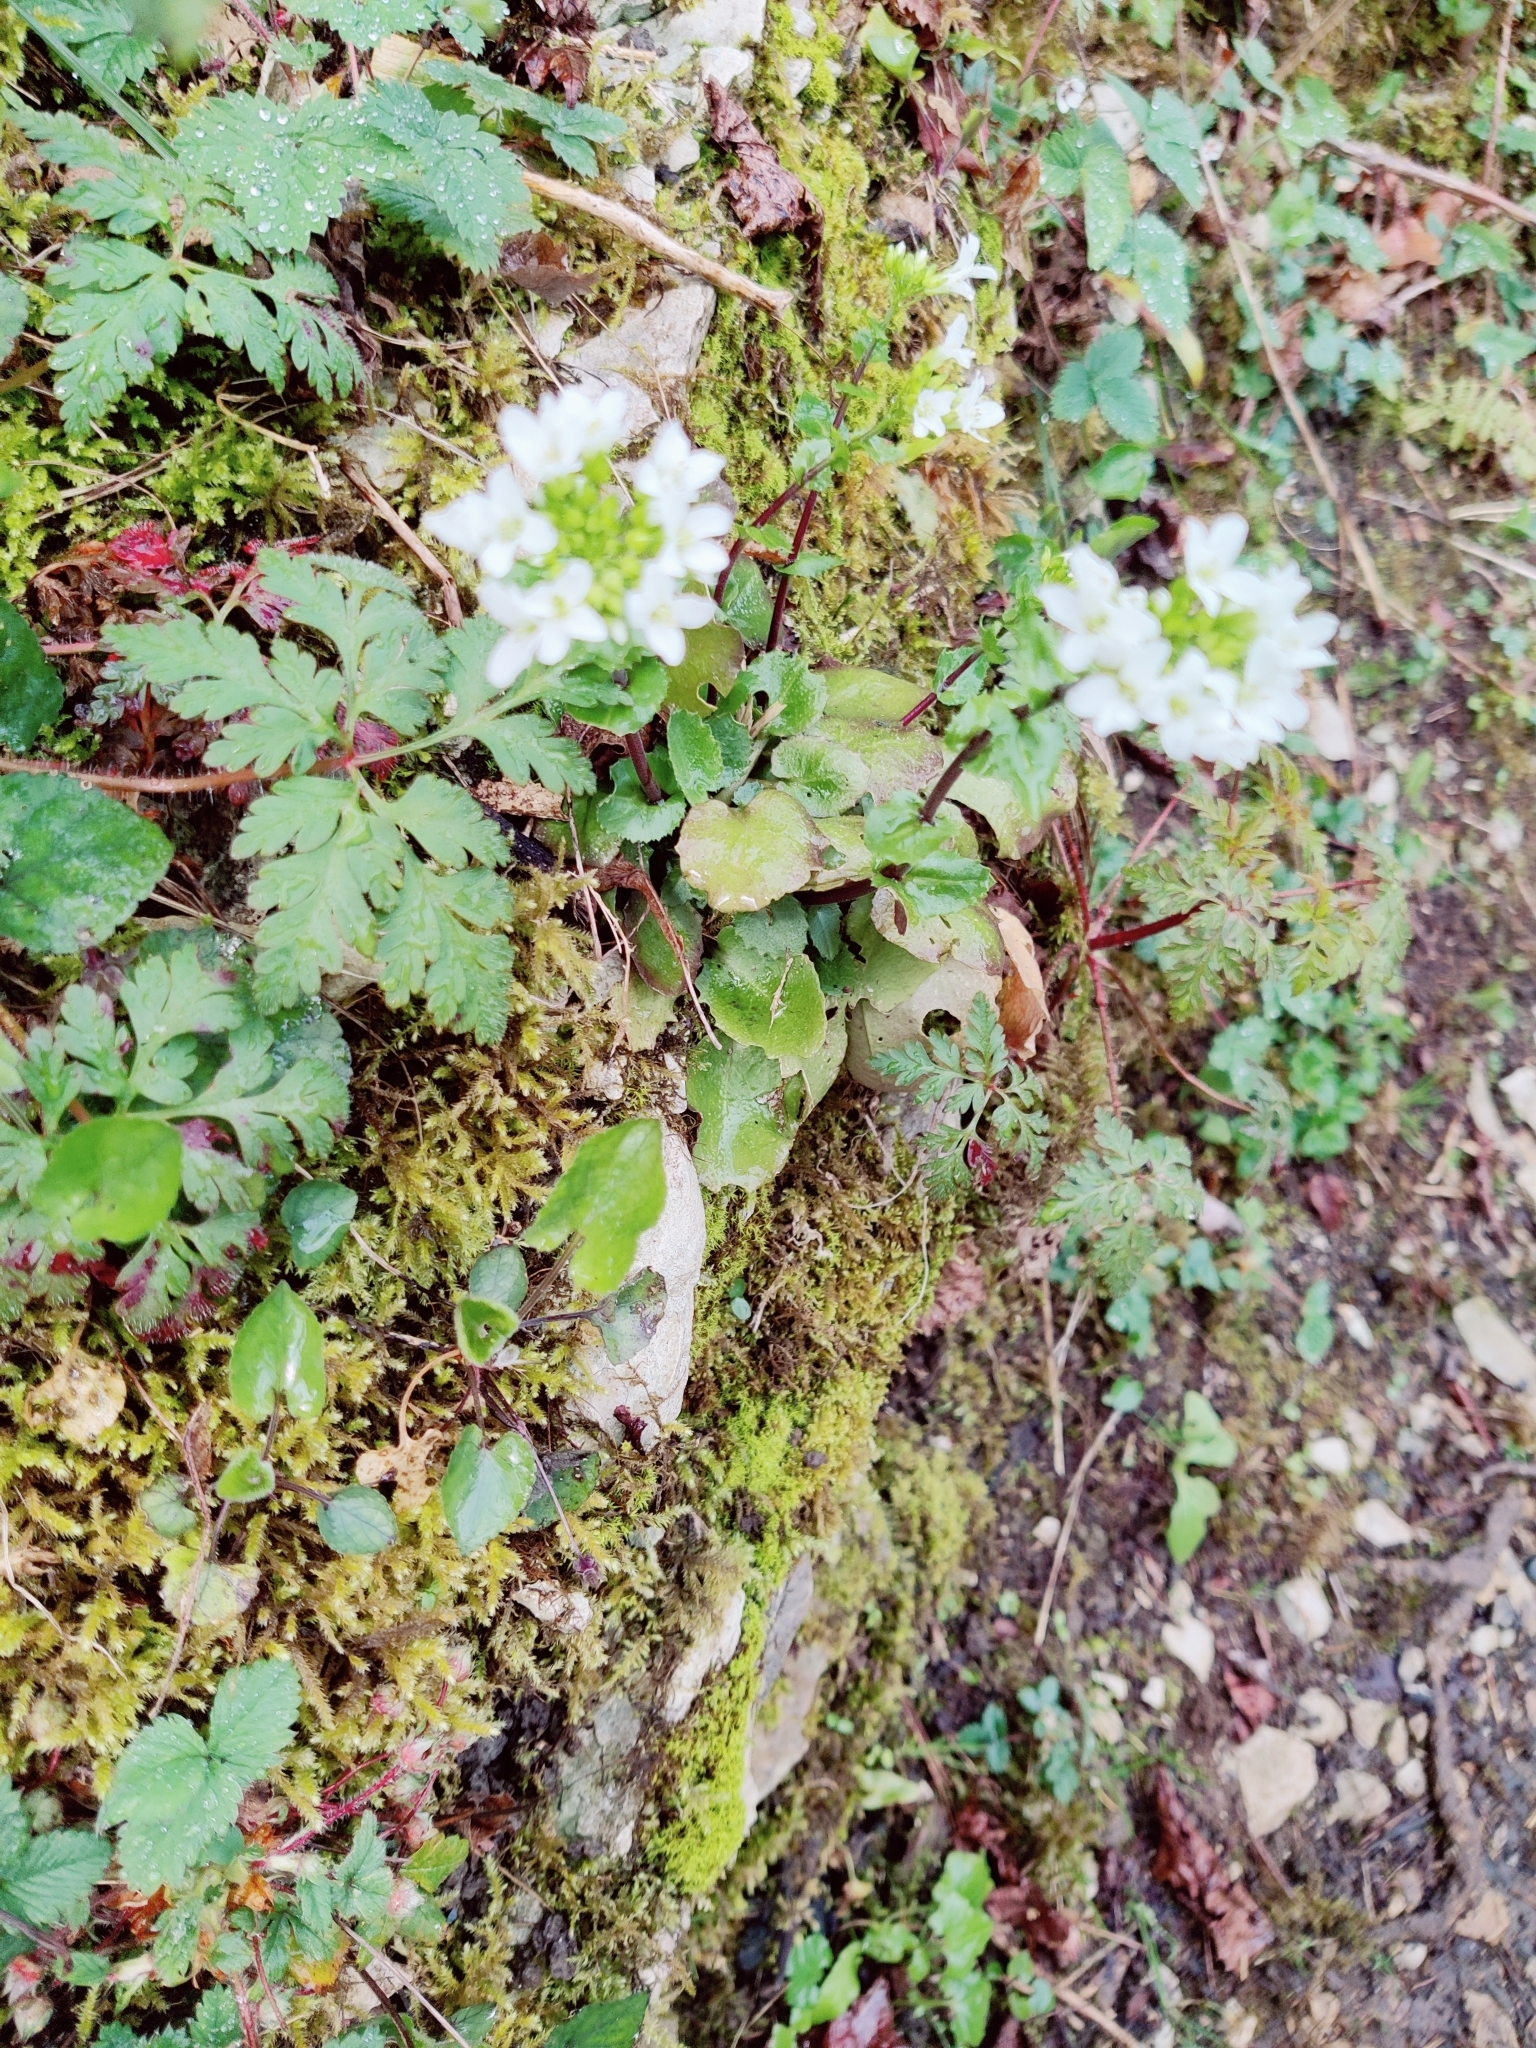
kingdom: Plantae
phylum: Tracheophyta
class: Magnoliopsida
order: Brassicales
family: Brassicaceae
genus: Arabis
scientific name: Arabis nordmanniana
